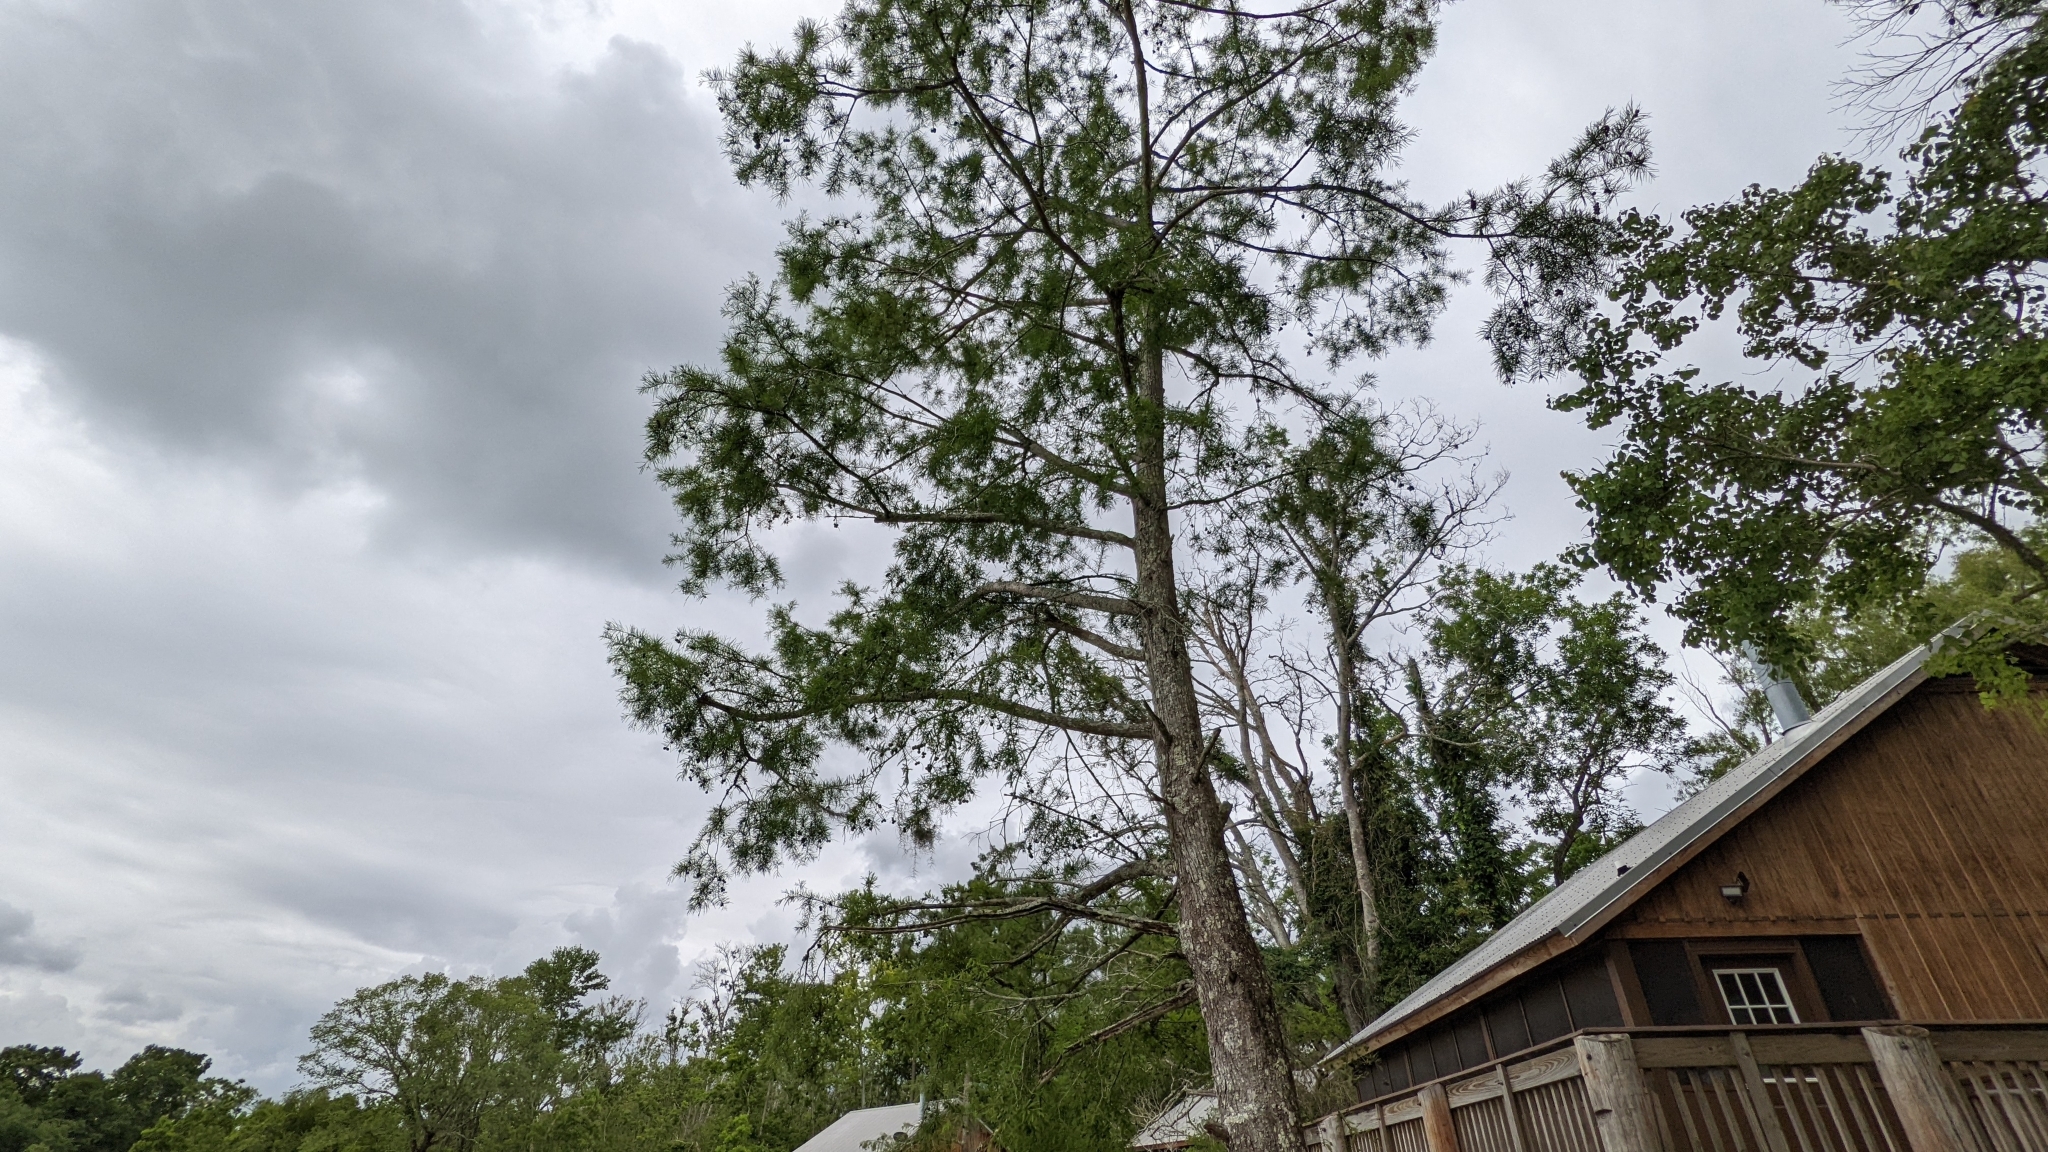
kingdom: Plantae
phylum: Tracheophyta
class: Pinopsida
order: Pinales
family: Cupressaceae
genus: Taxodium
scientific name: Taxodium distichum
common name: Bald cypress
